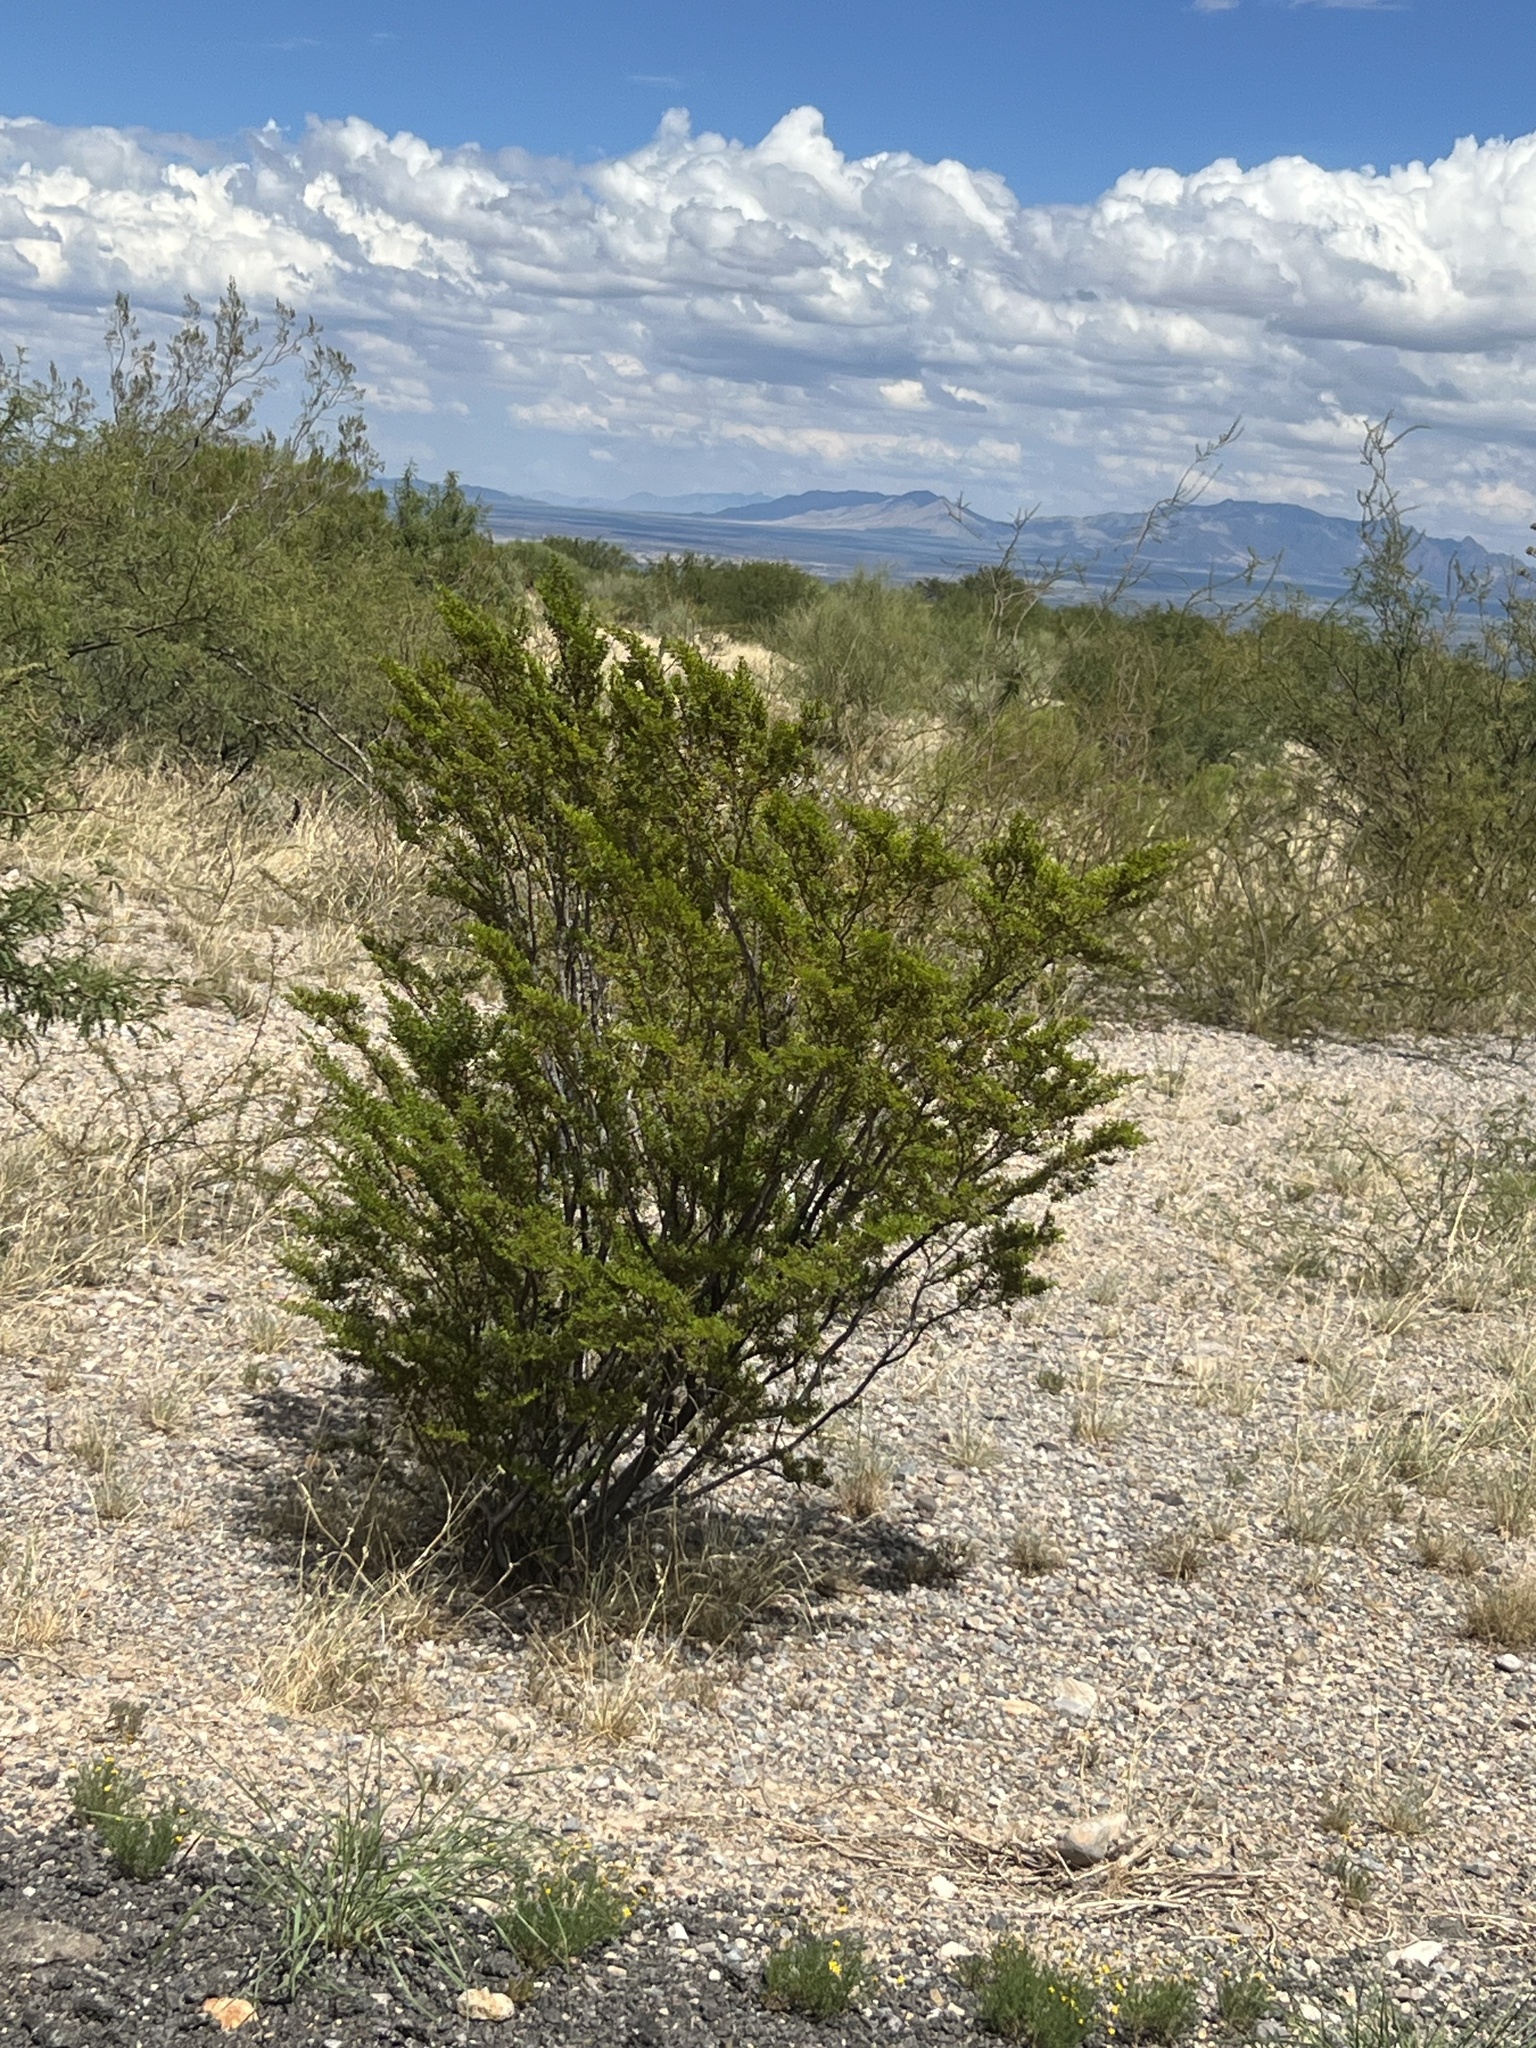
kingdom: Plantae
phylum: Tracheophyta
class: Magnoliopsida
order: Zygophyllales
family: Zygophyllaceae
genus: Larrea
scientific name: Larrea tridentata
